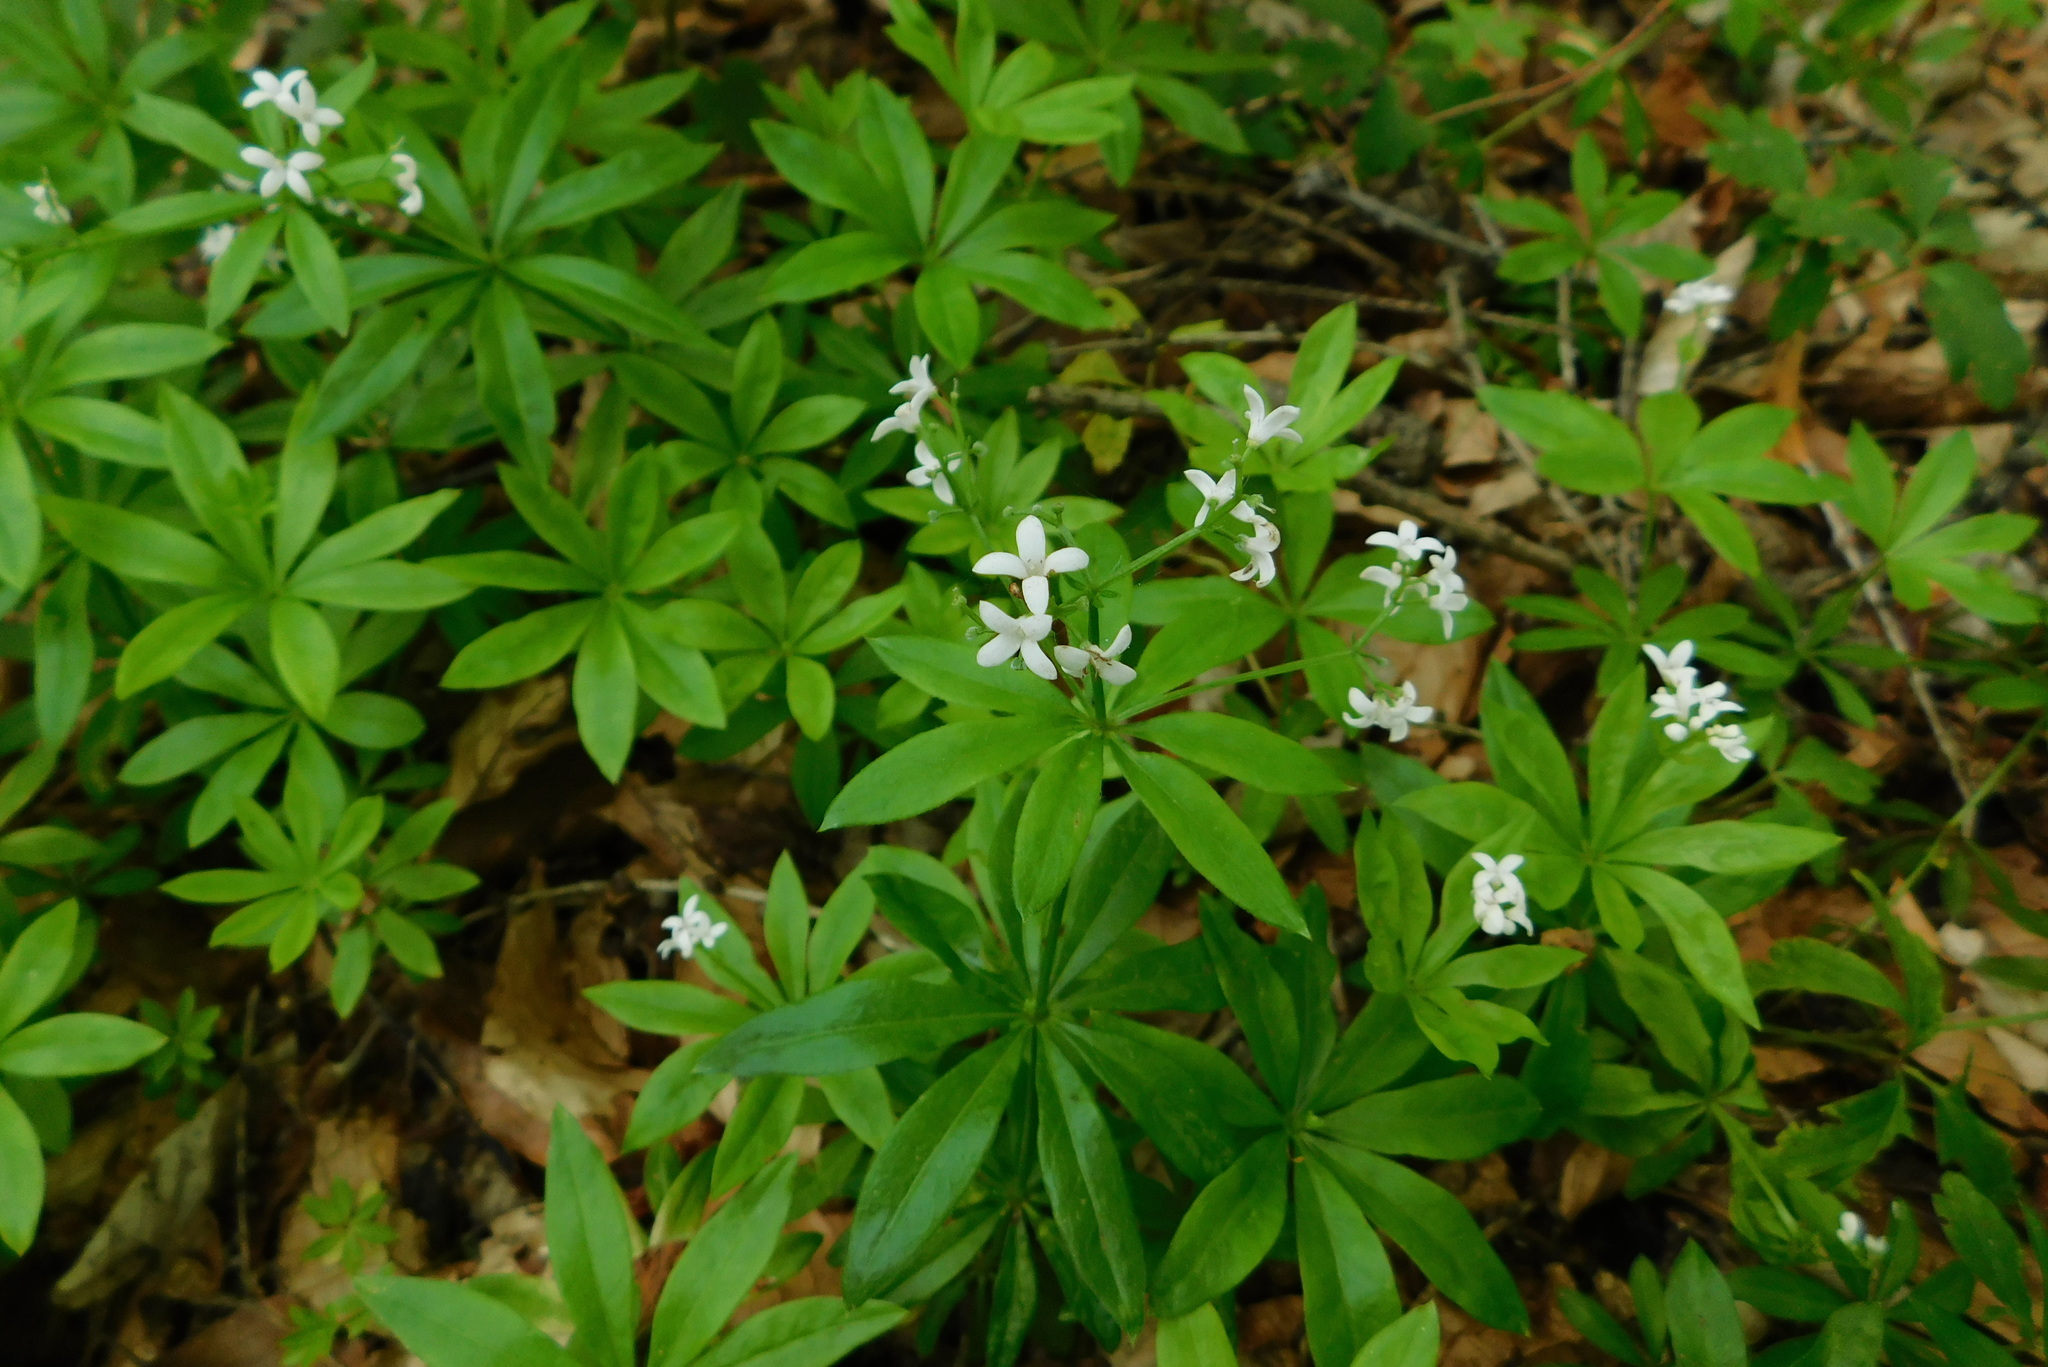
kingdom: Plantae
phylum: Tracheophyta
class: Magnoliopsida
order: Gentianales
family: Rubiaceae
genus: Galium
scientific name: Galium odoratum
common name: Sweet woodruff
